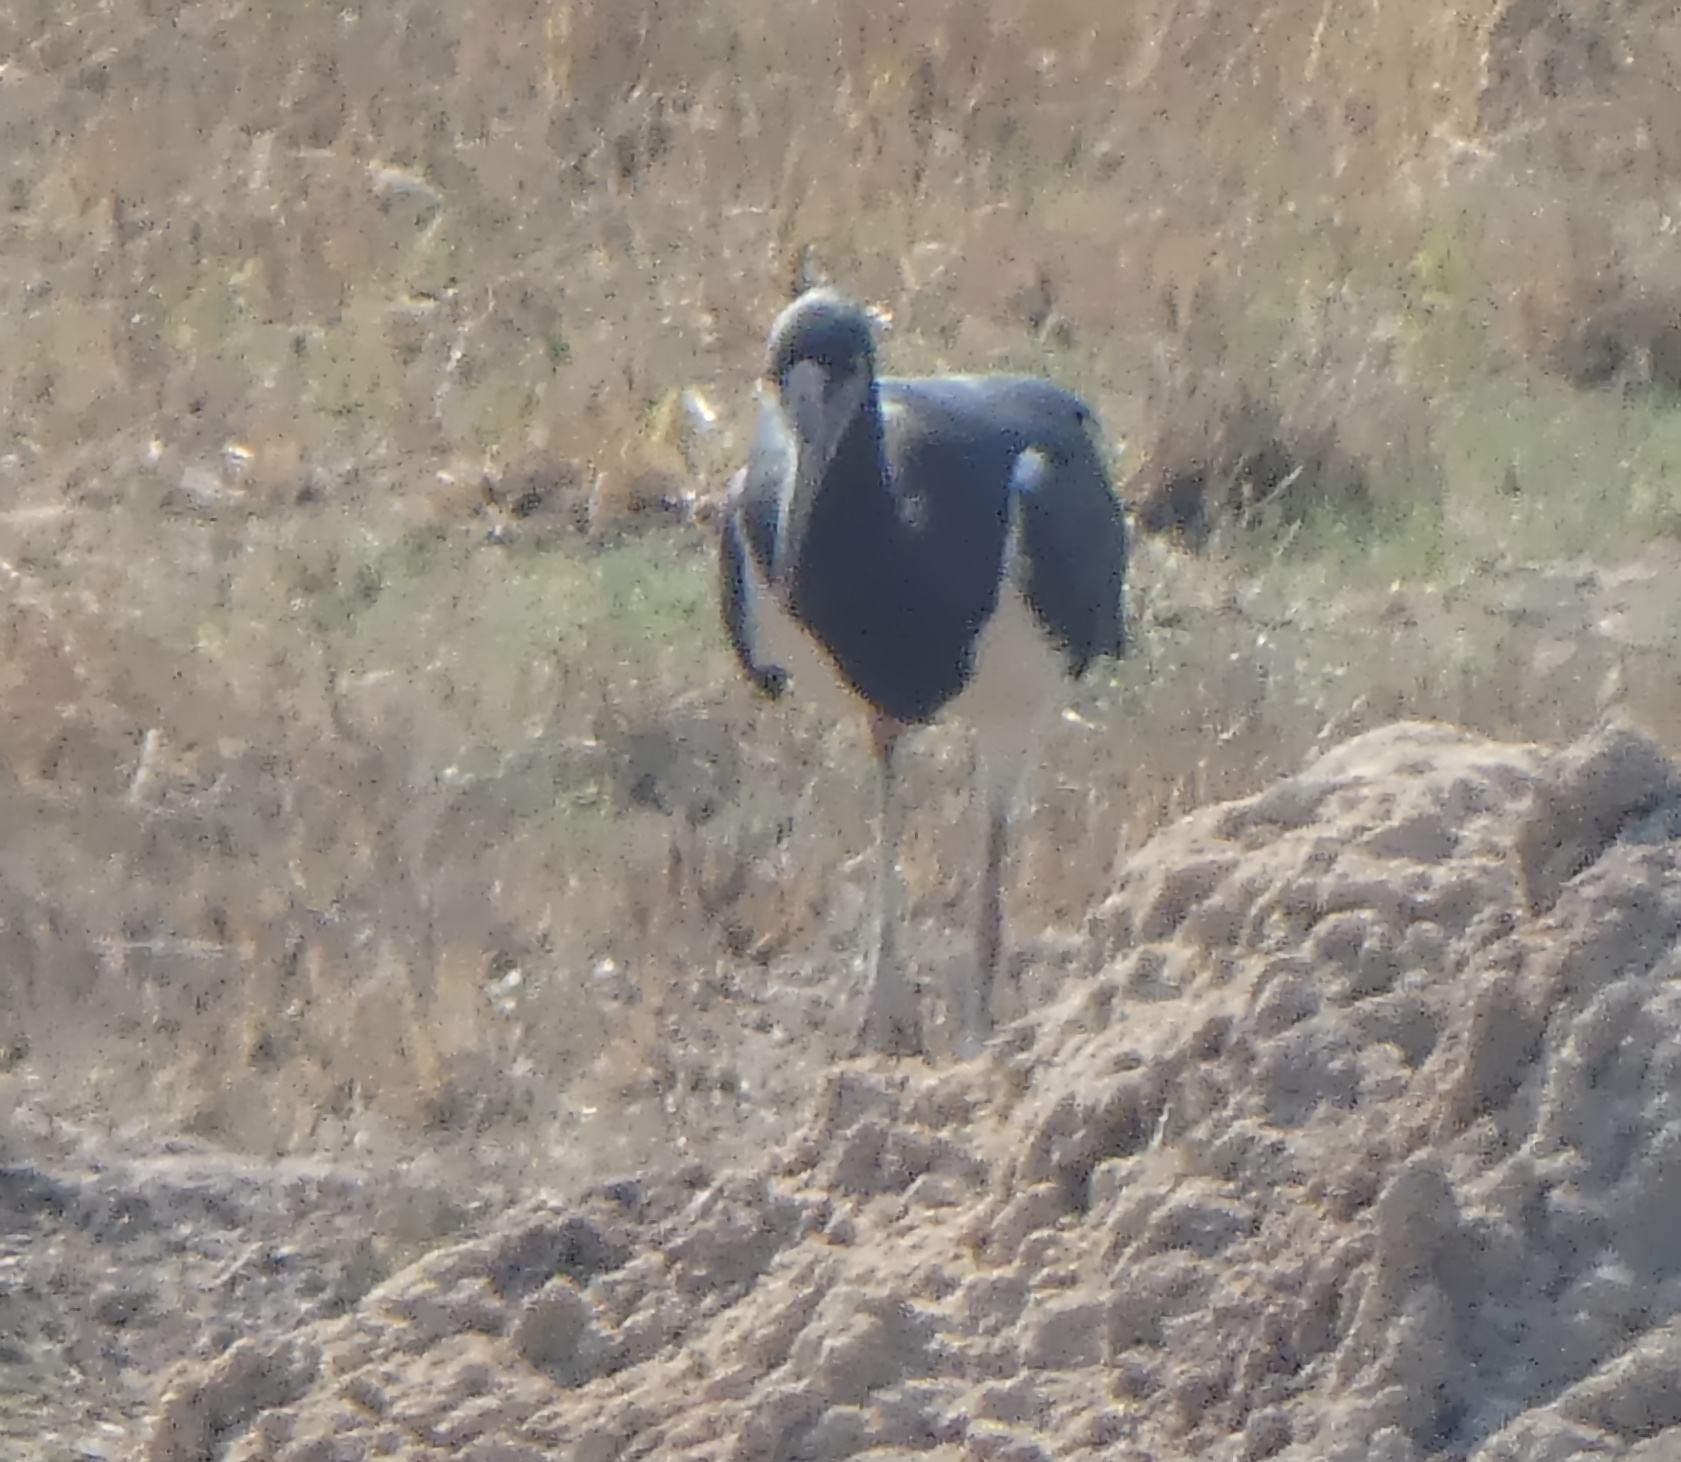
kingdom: Animalia
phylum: Chordata
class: Aves
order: Ciconiiformes
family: Ciconiidae
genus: Ciconia
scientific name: Ciconia abdimii
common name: Abdim's stork
